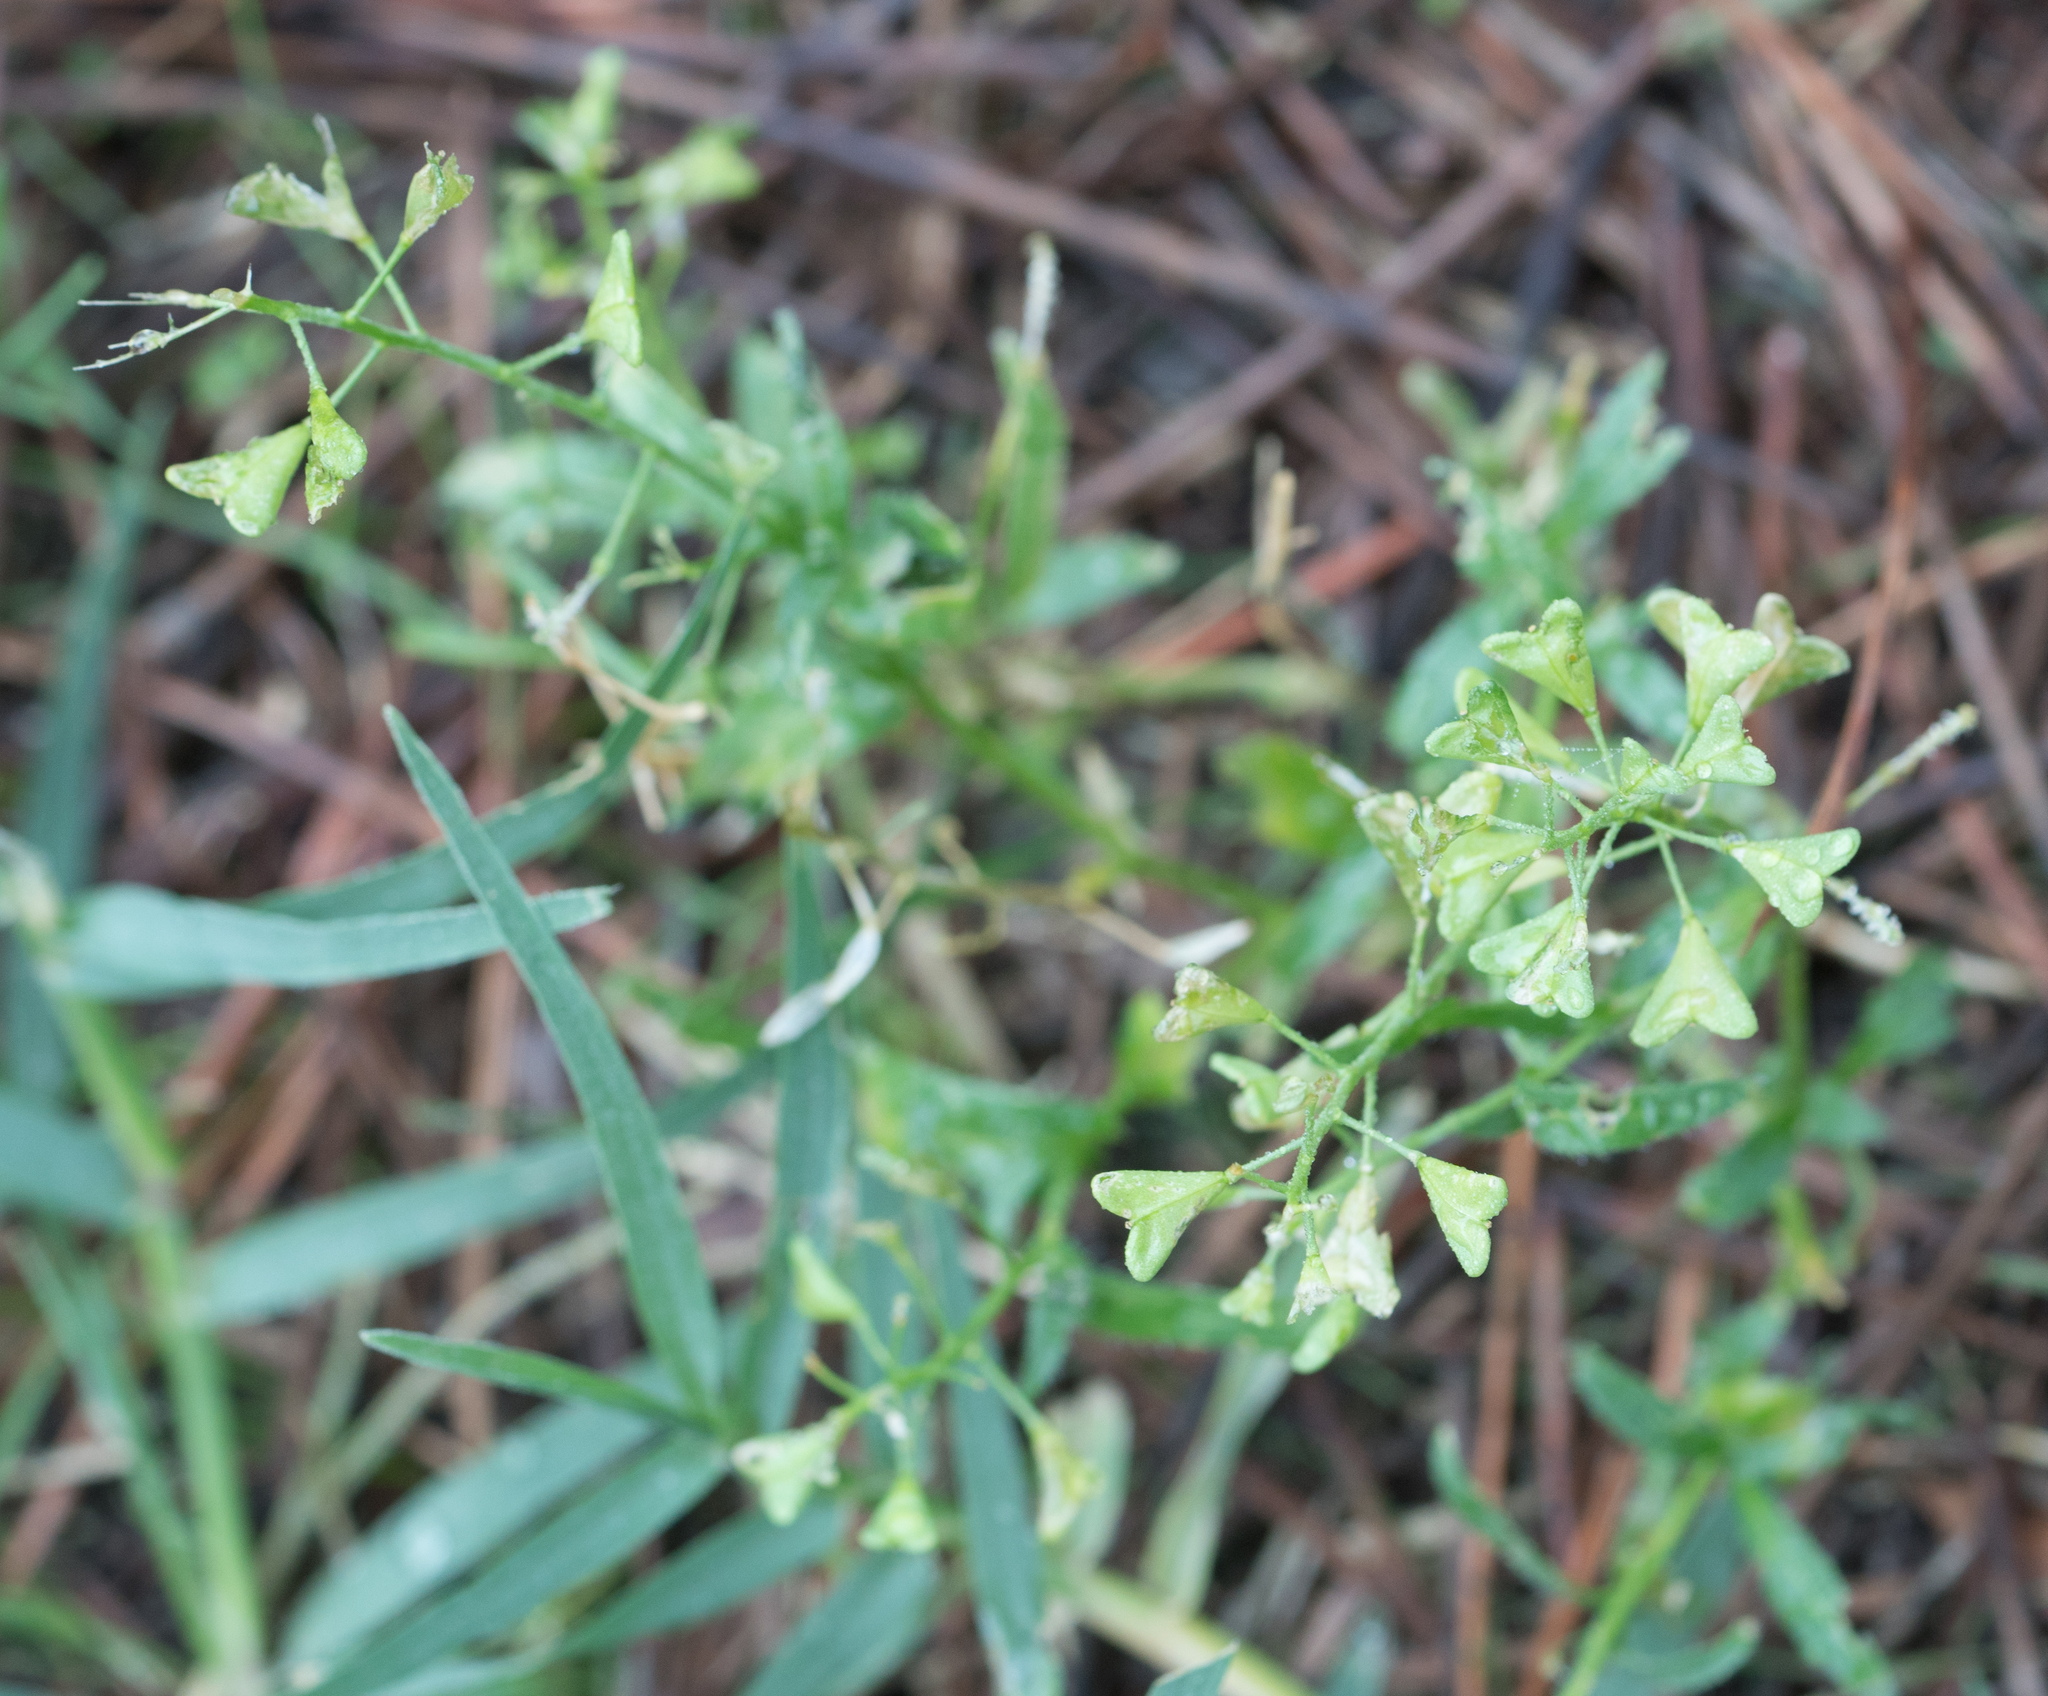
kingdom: Plantae
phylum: Tracheophyta
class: Magnoliopsida
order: Brassicales
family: Brassicaceae
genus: Capsella
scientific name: Capsella bursa-pastoris
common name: Shepherd's purse
